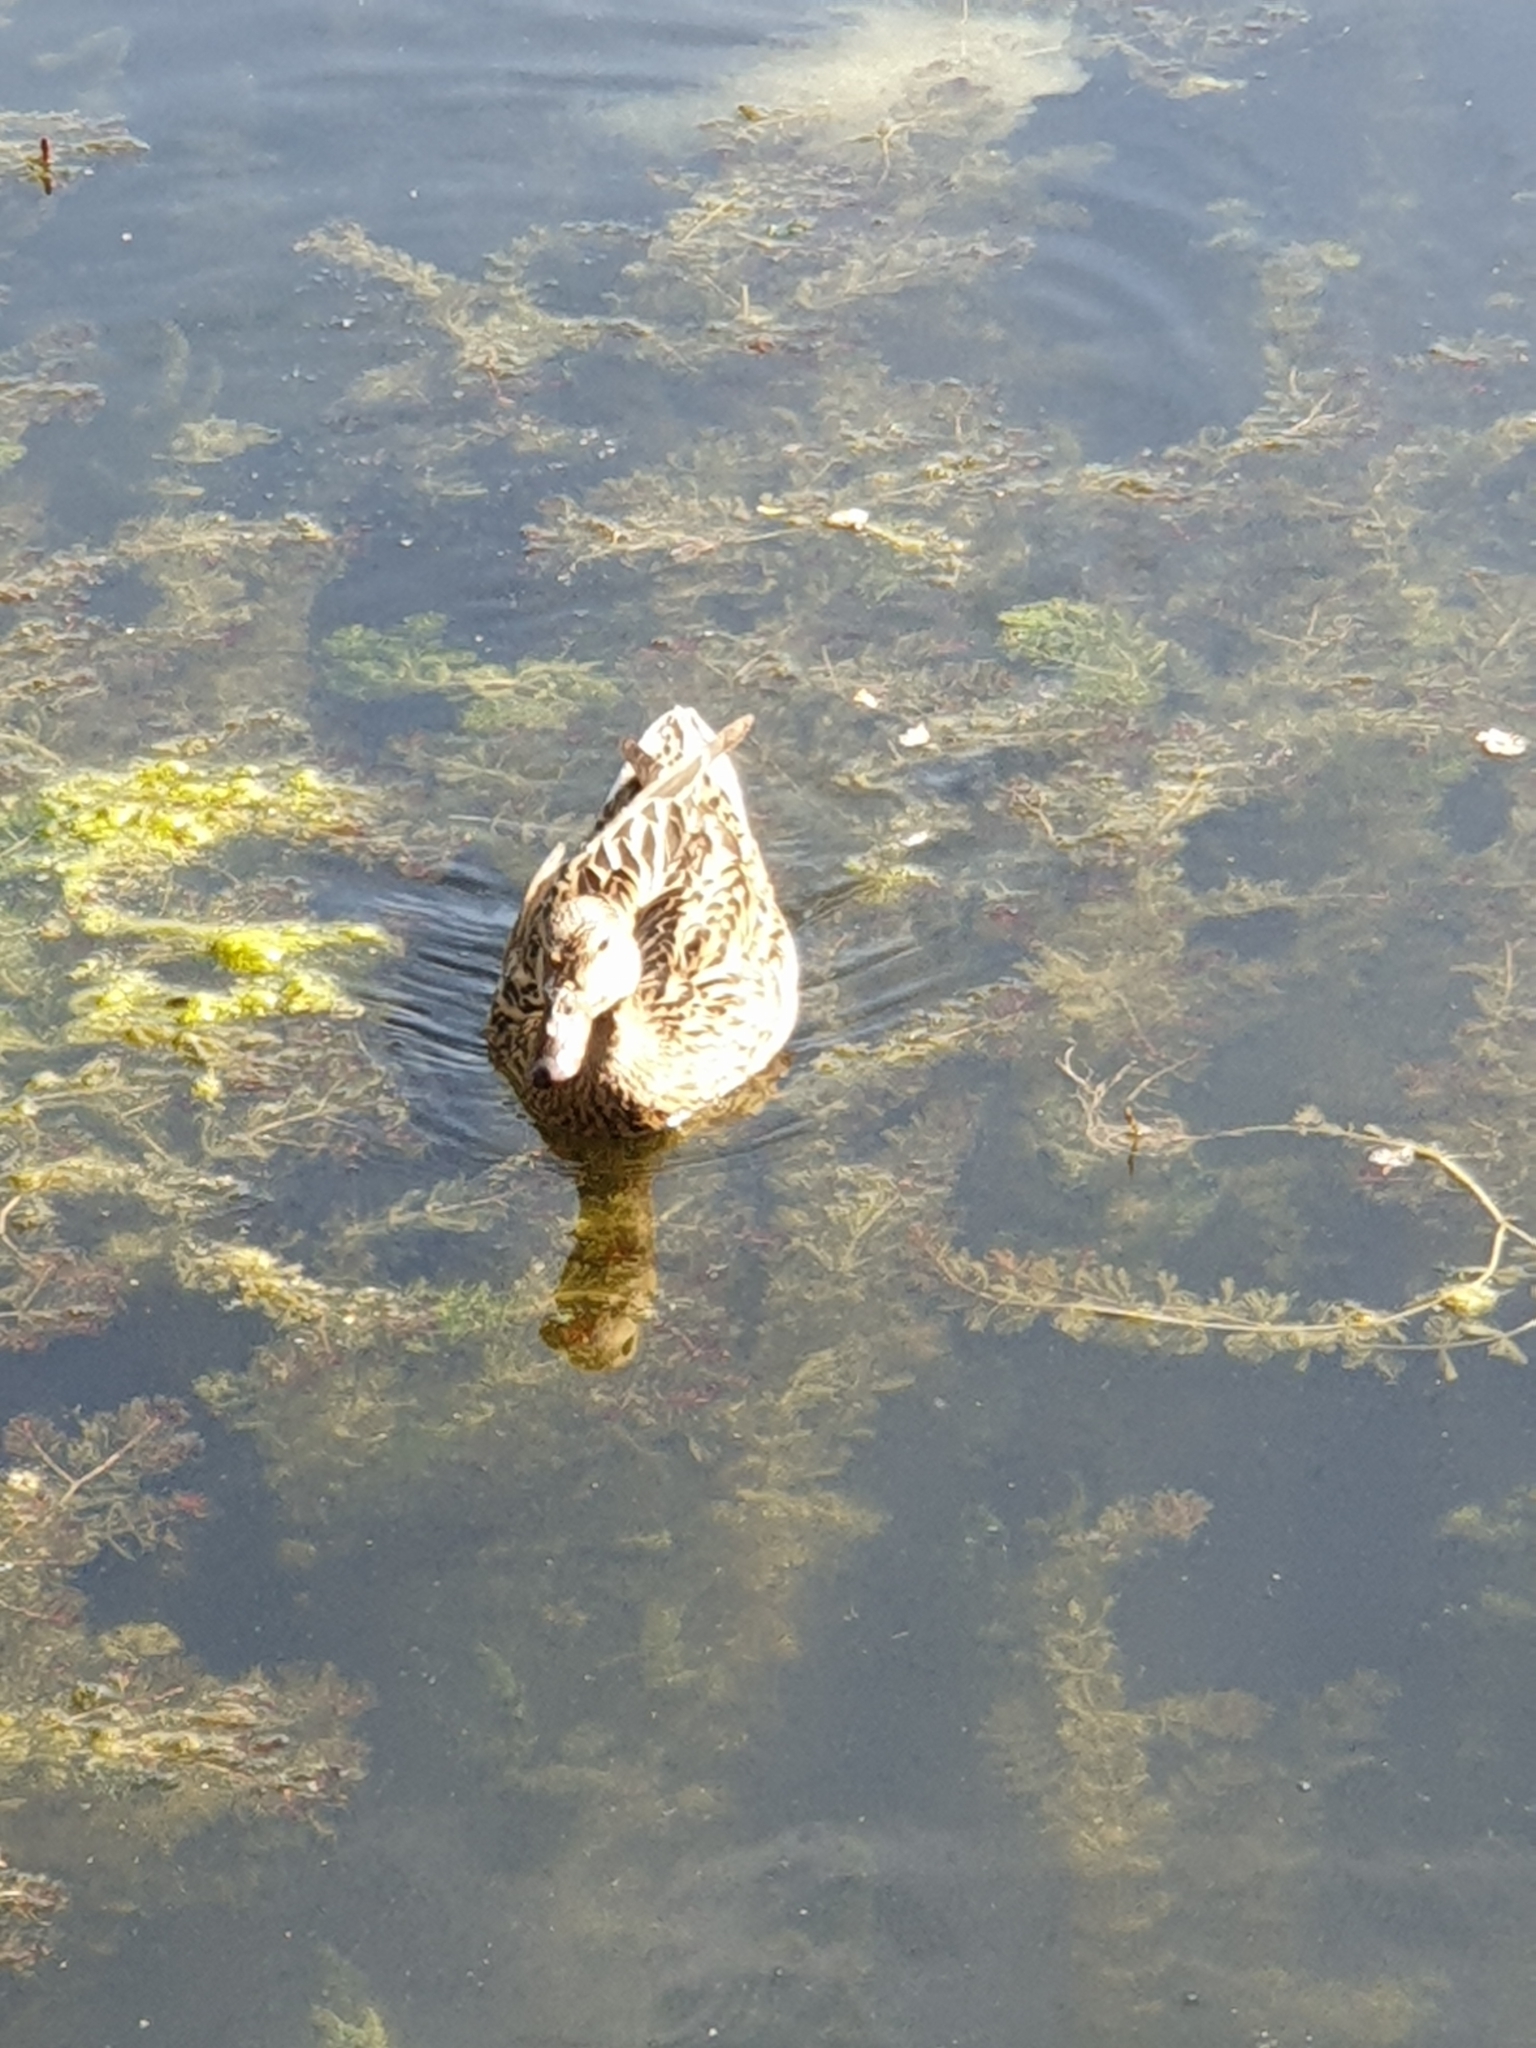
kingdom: Animalia
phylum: Chordata
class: Aves
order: Anseriformes
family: Anatidae
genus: Anas
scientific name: Anas platyrhynchos
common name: Mallard
